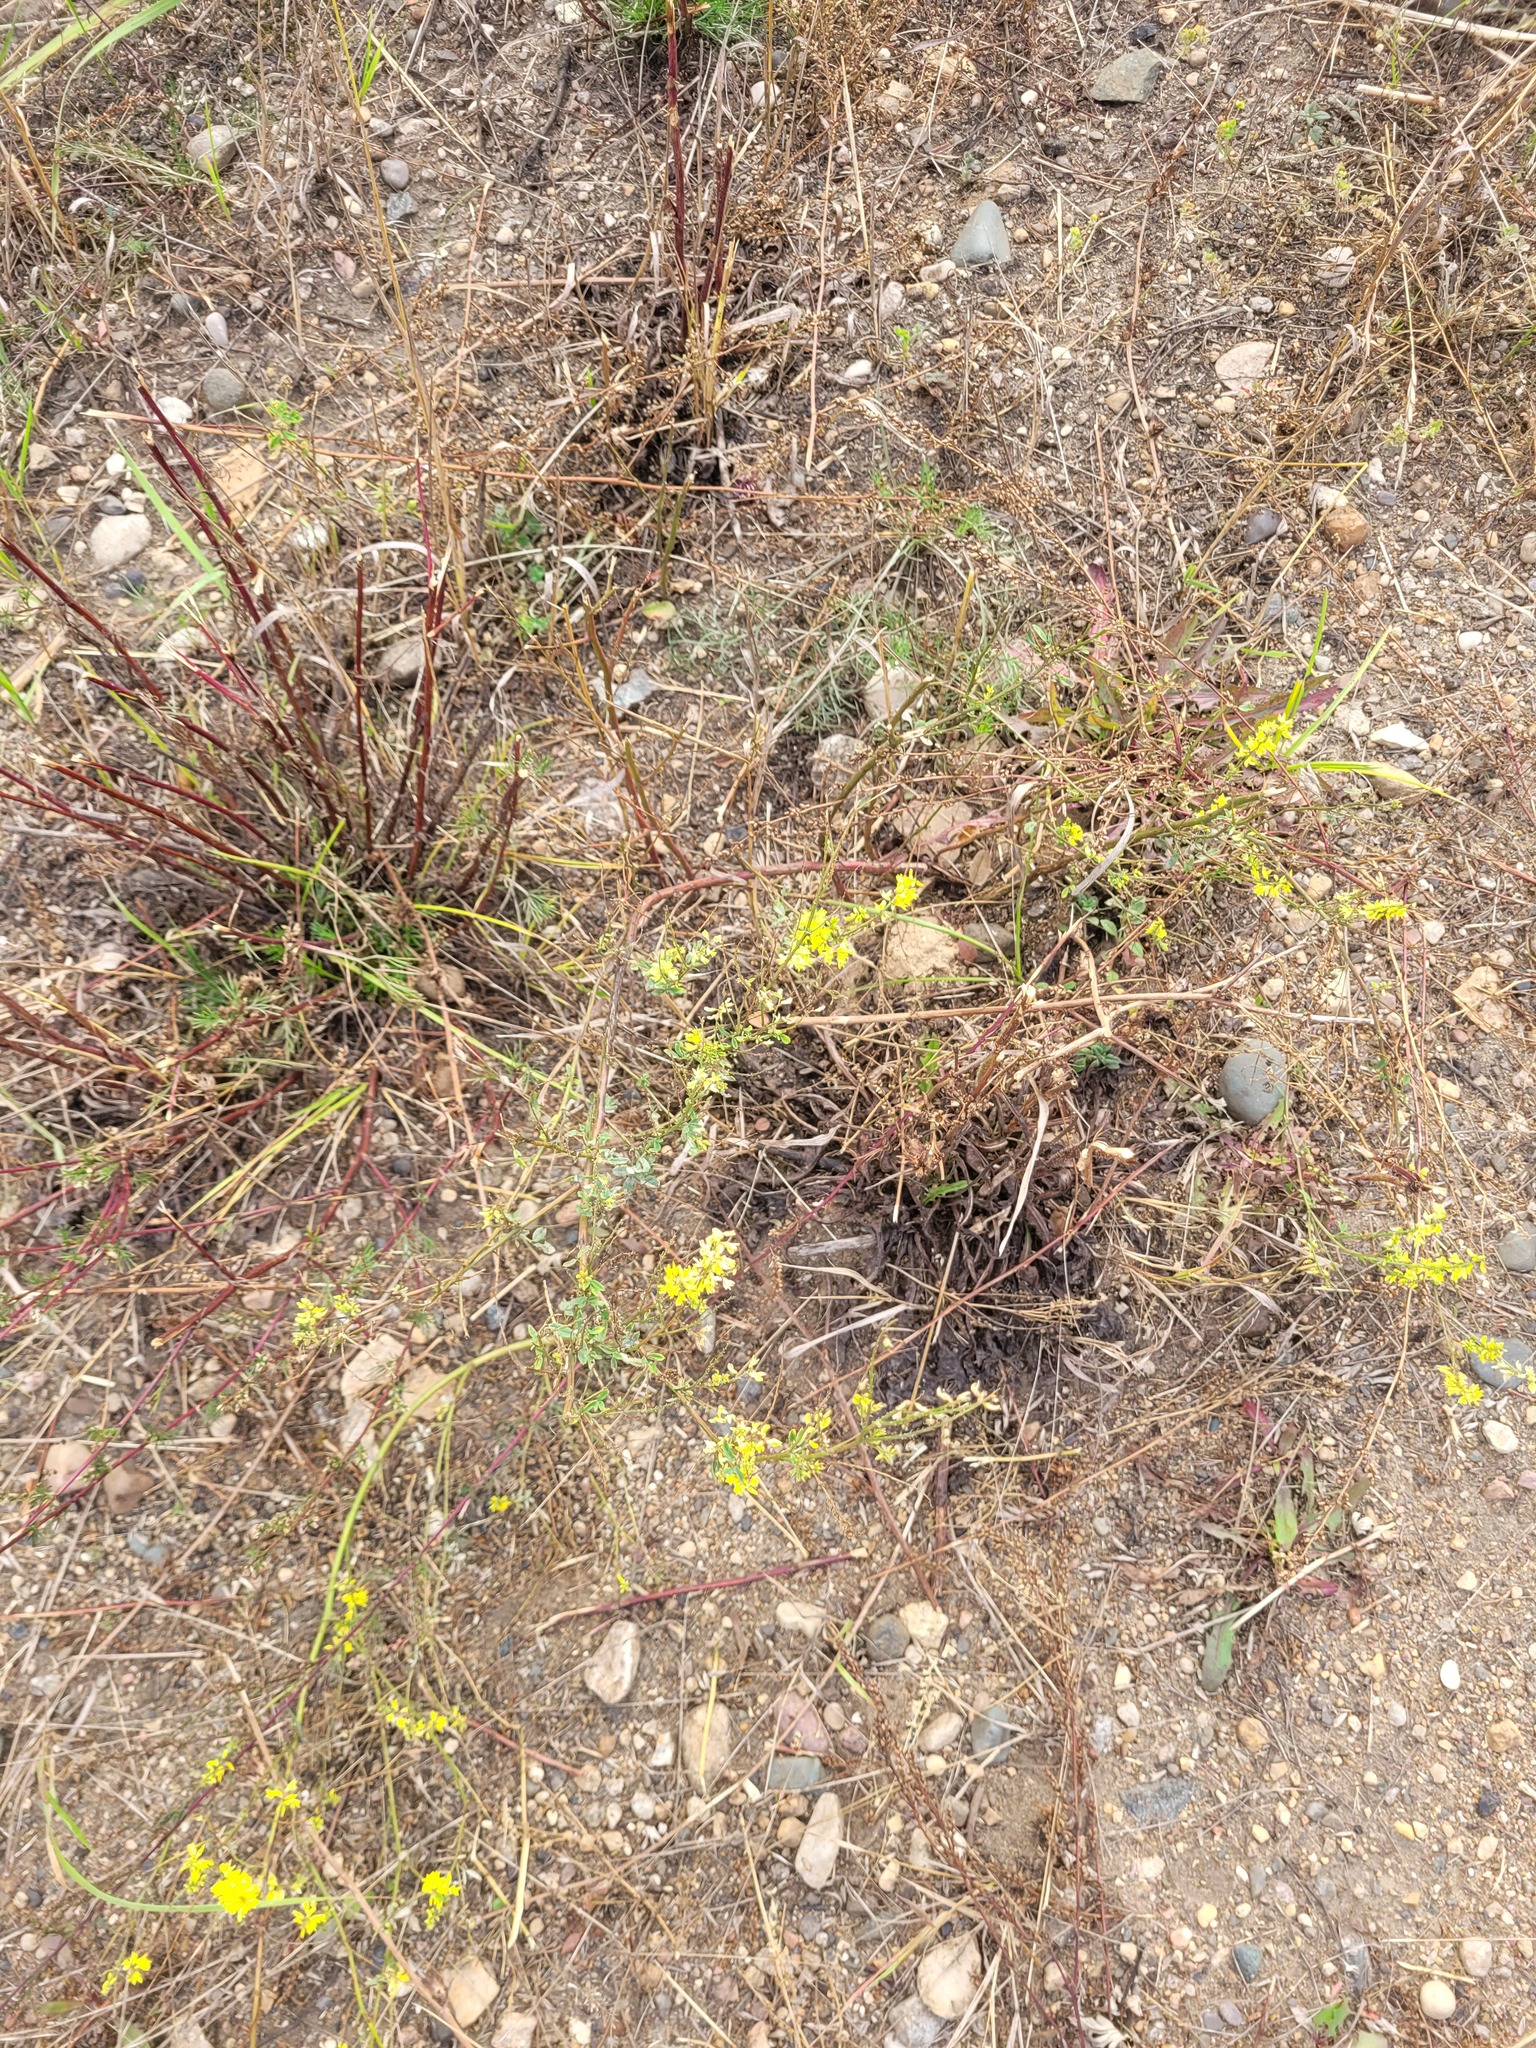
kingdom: Plantae
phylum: Tracheophyta
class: Magnoliopsida
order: Fabales
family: Fabaceae
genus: Melilotus
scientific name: Melilotus officinalis
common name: Sweetclover
